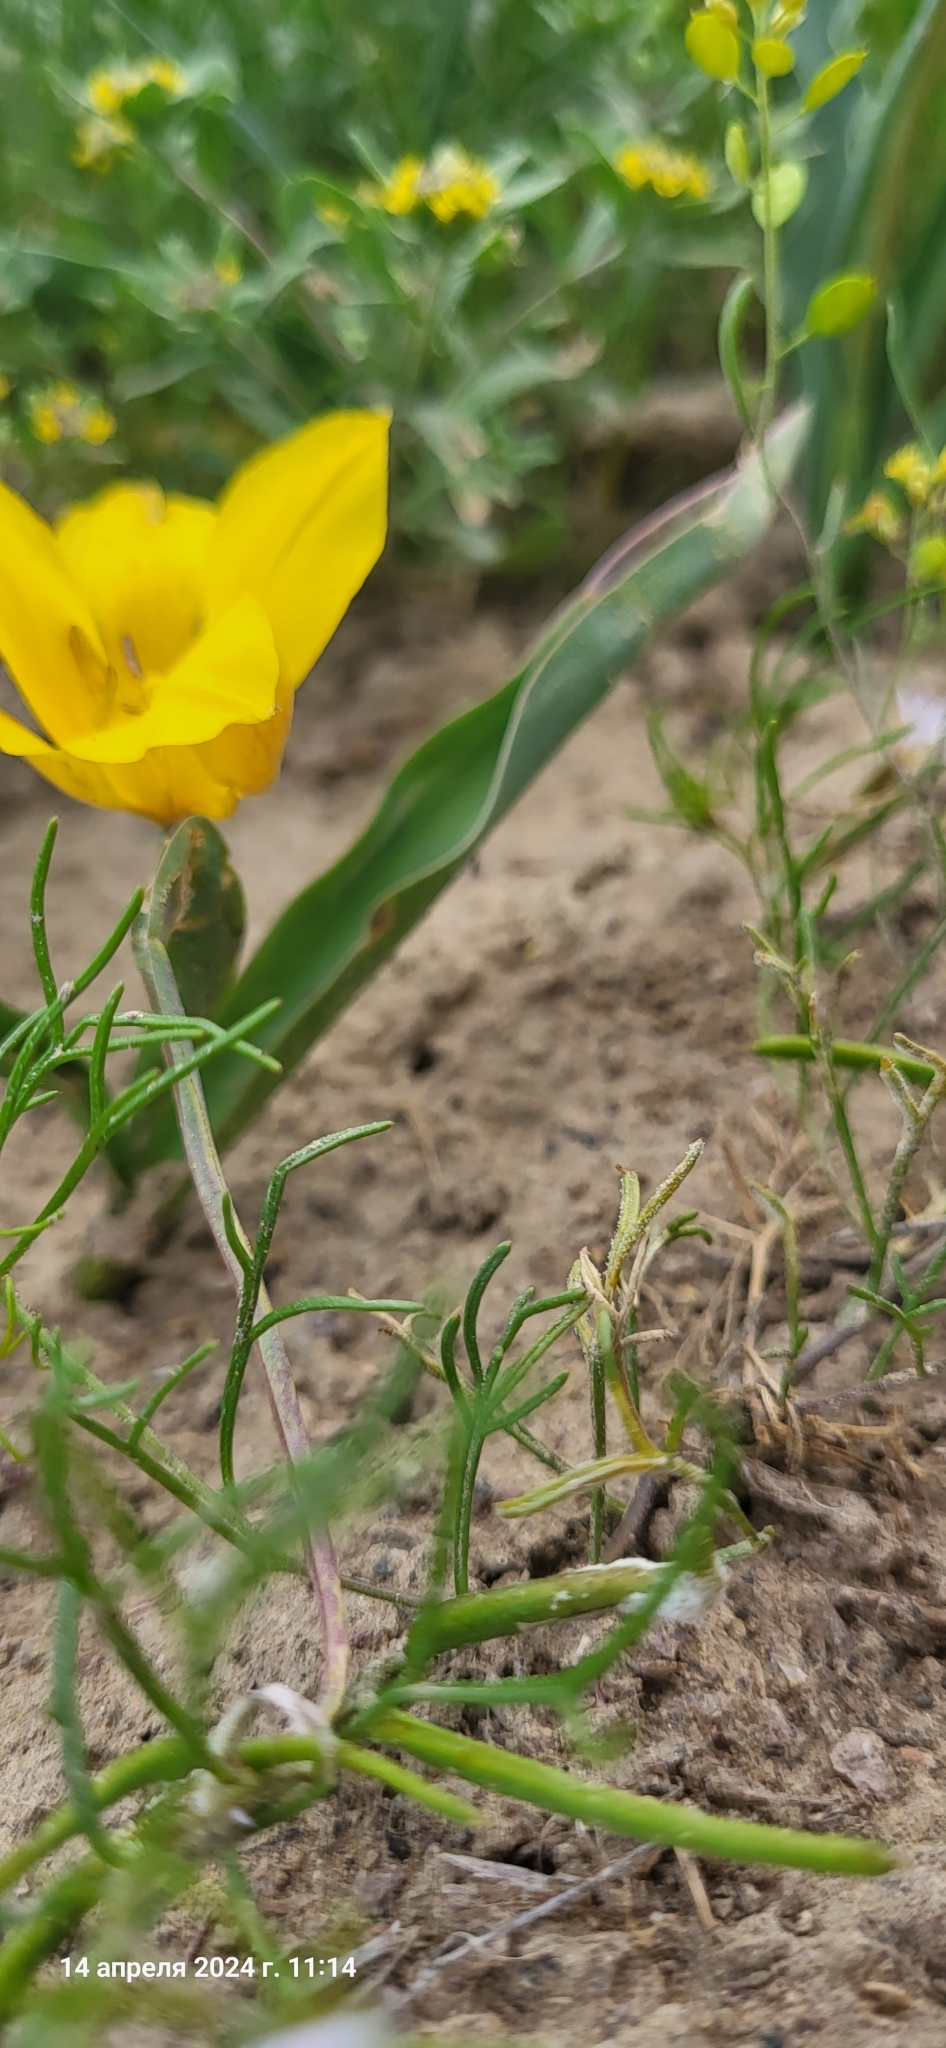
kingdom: Plantae
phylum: Tracheophyta
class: Liliopsida
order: Liliales
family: Liliaceae
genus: Tulipa
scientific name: Tulipa kolpakowskiana
